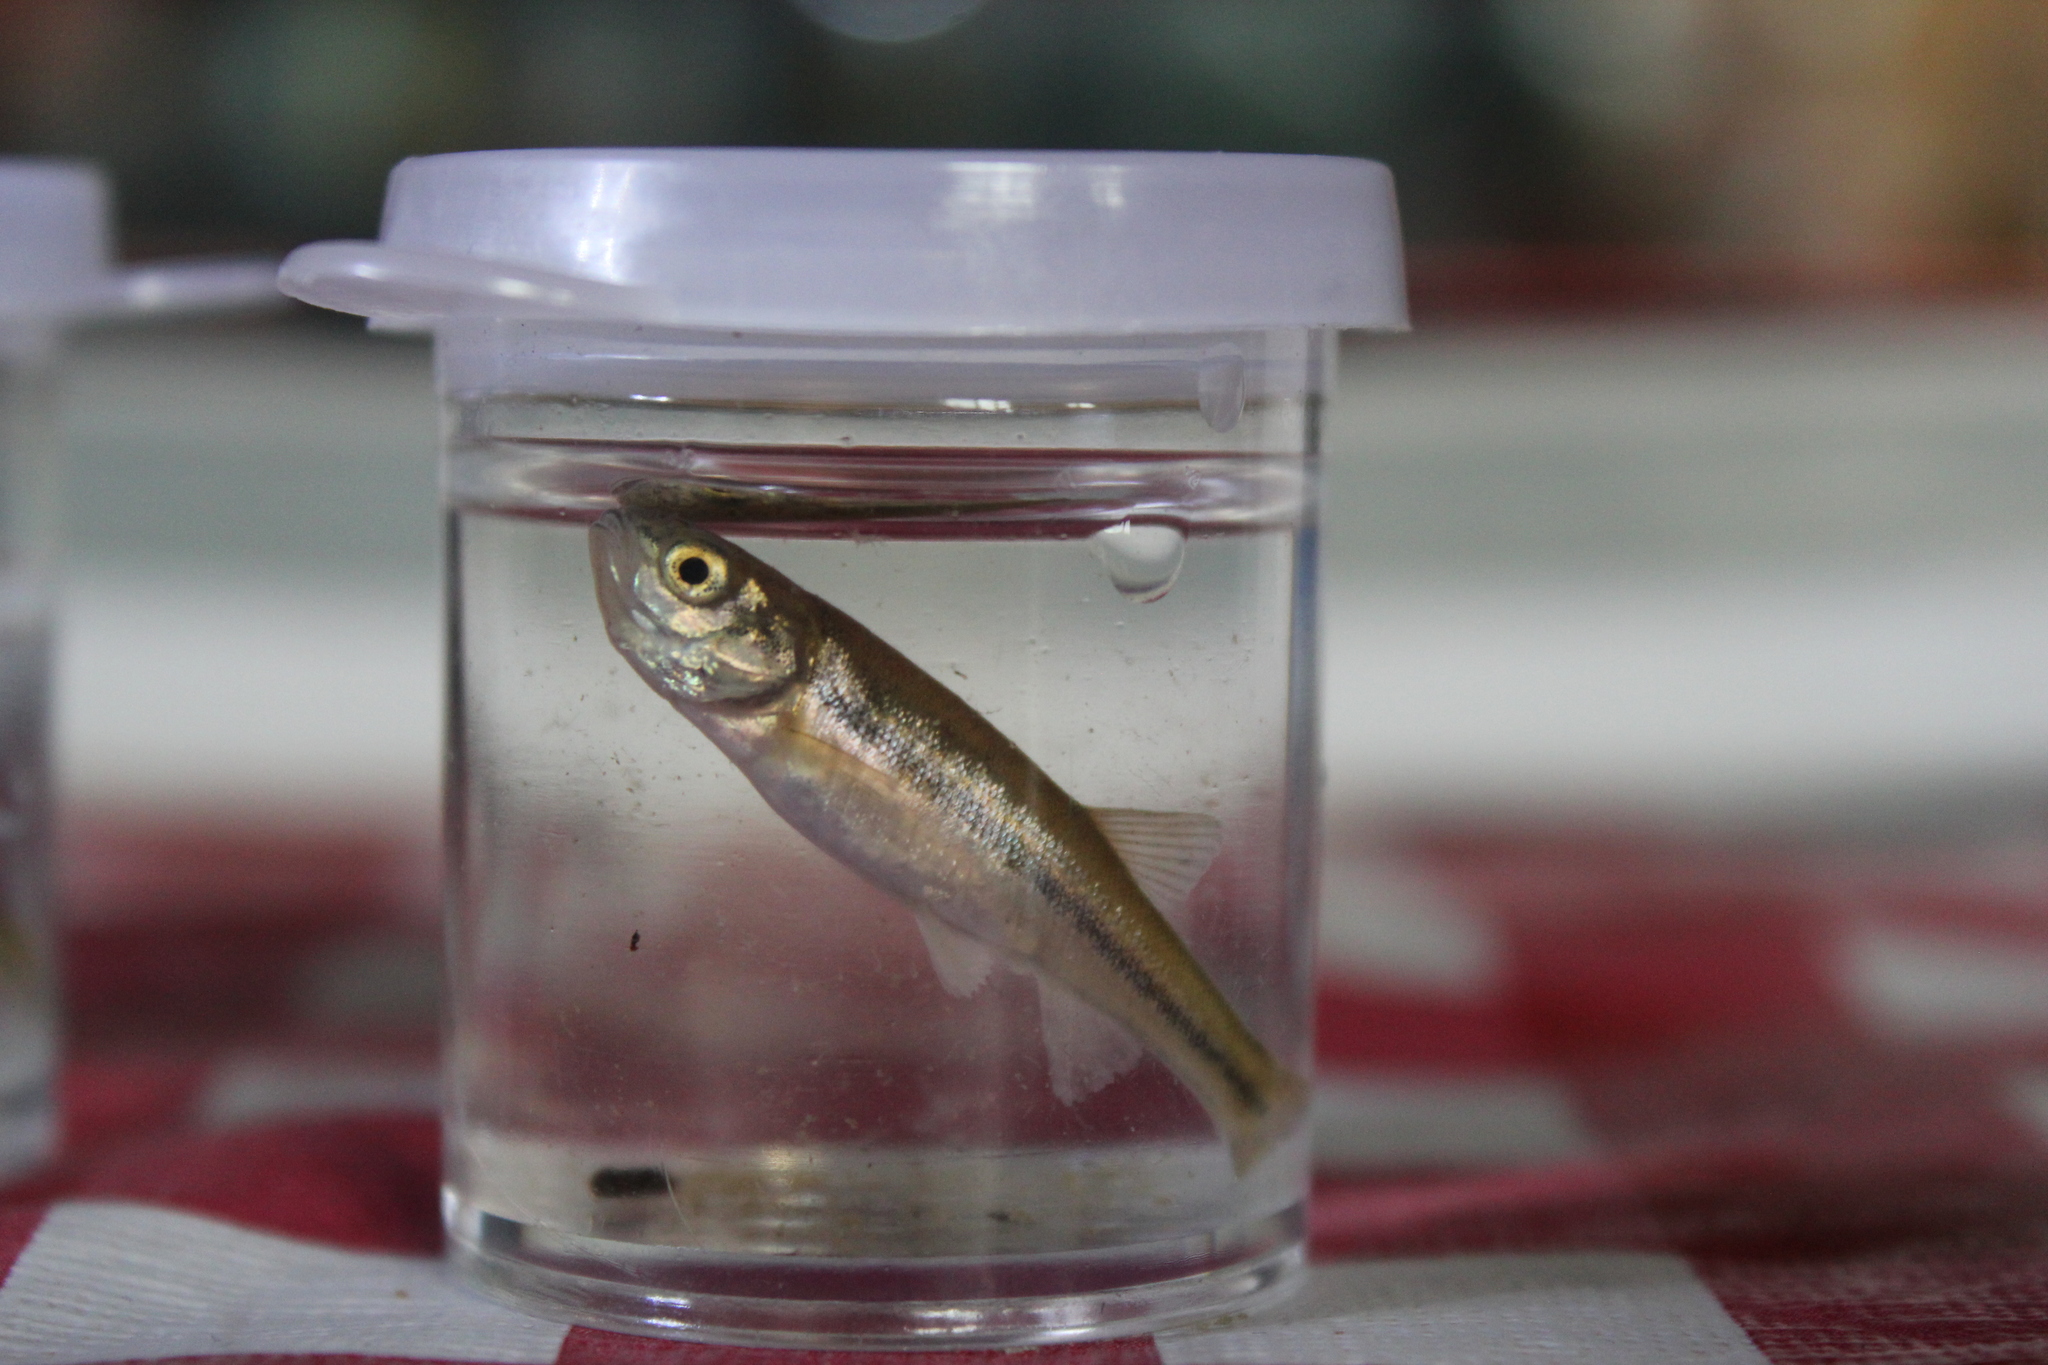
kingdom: Animalia
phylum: Chordata
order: Cypriniformes
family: Cyprinidae
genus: Margariscus
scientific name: Margariscus nachtriebi
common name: Northern pearl dace
